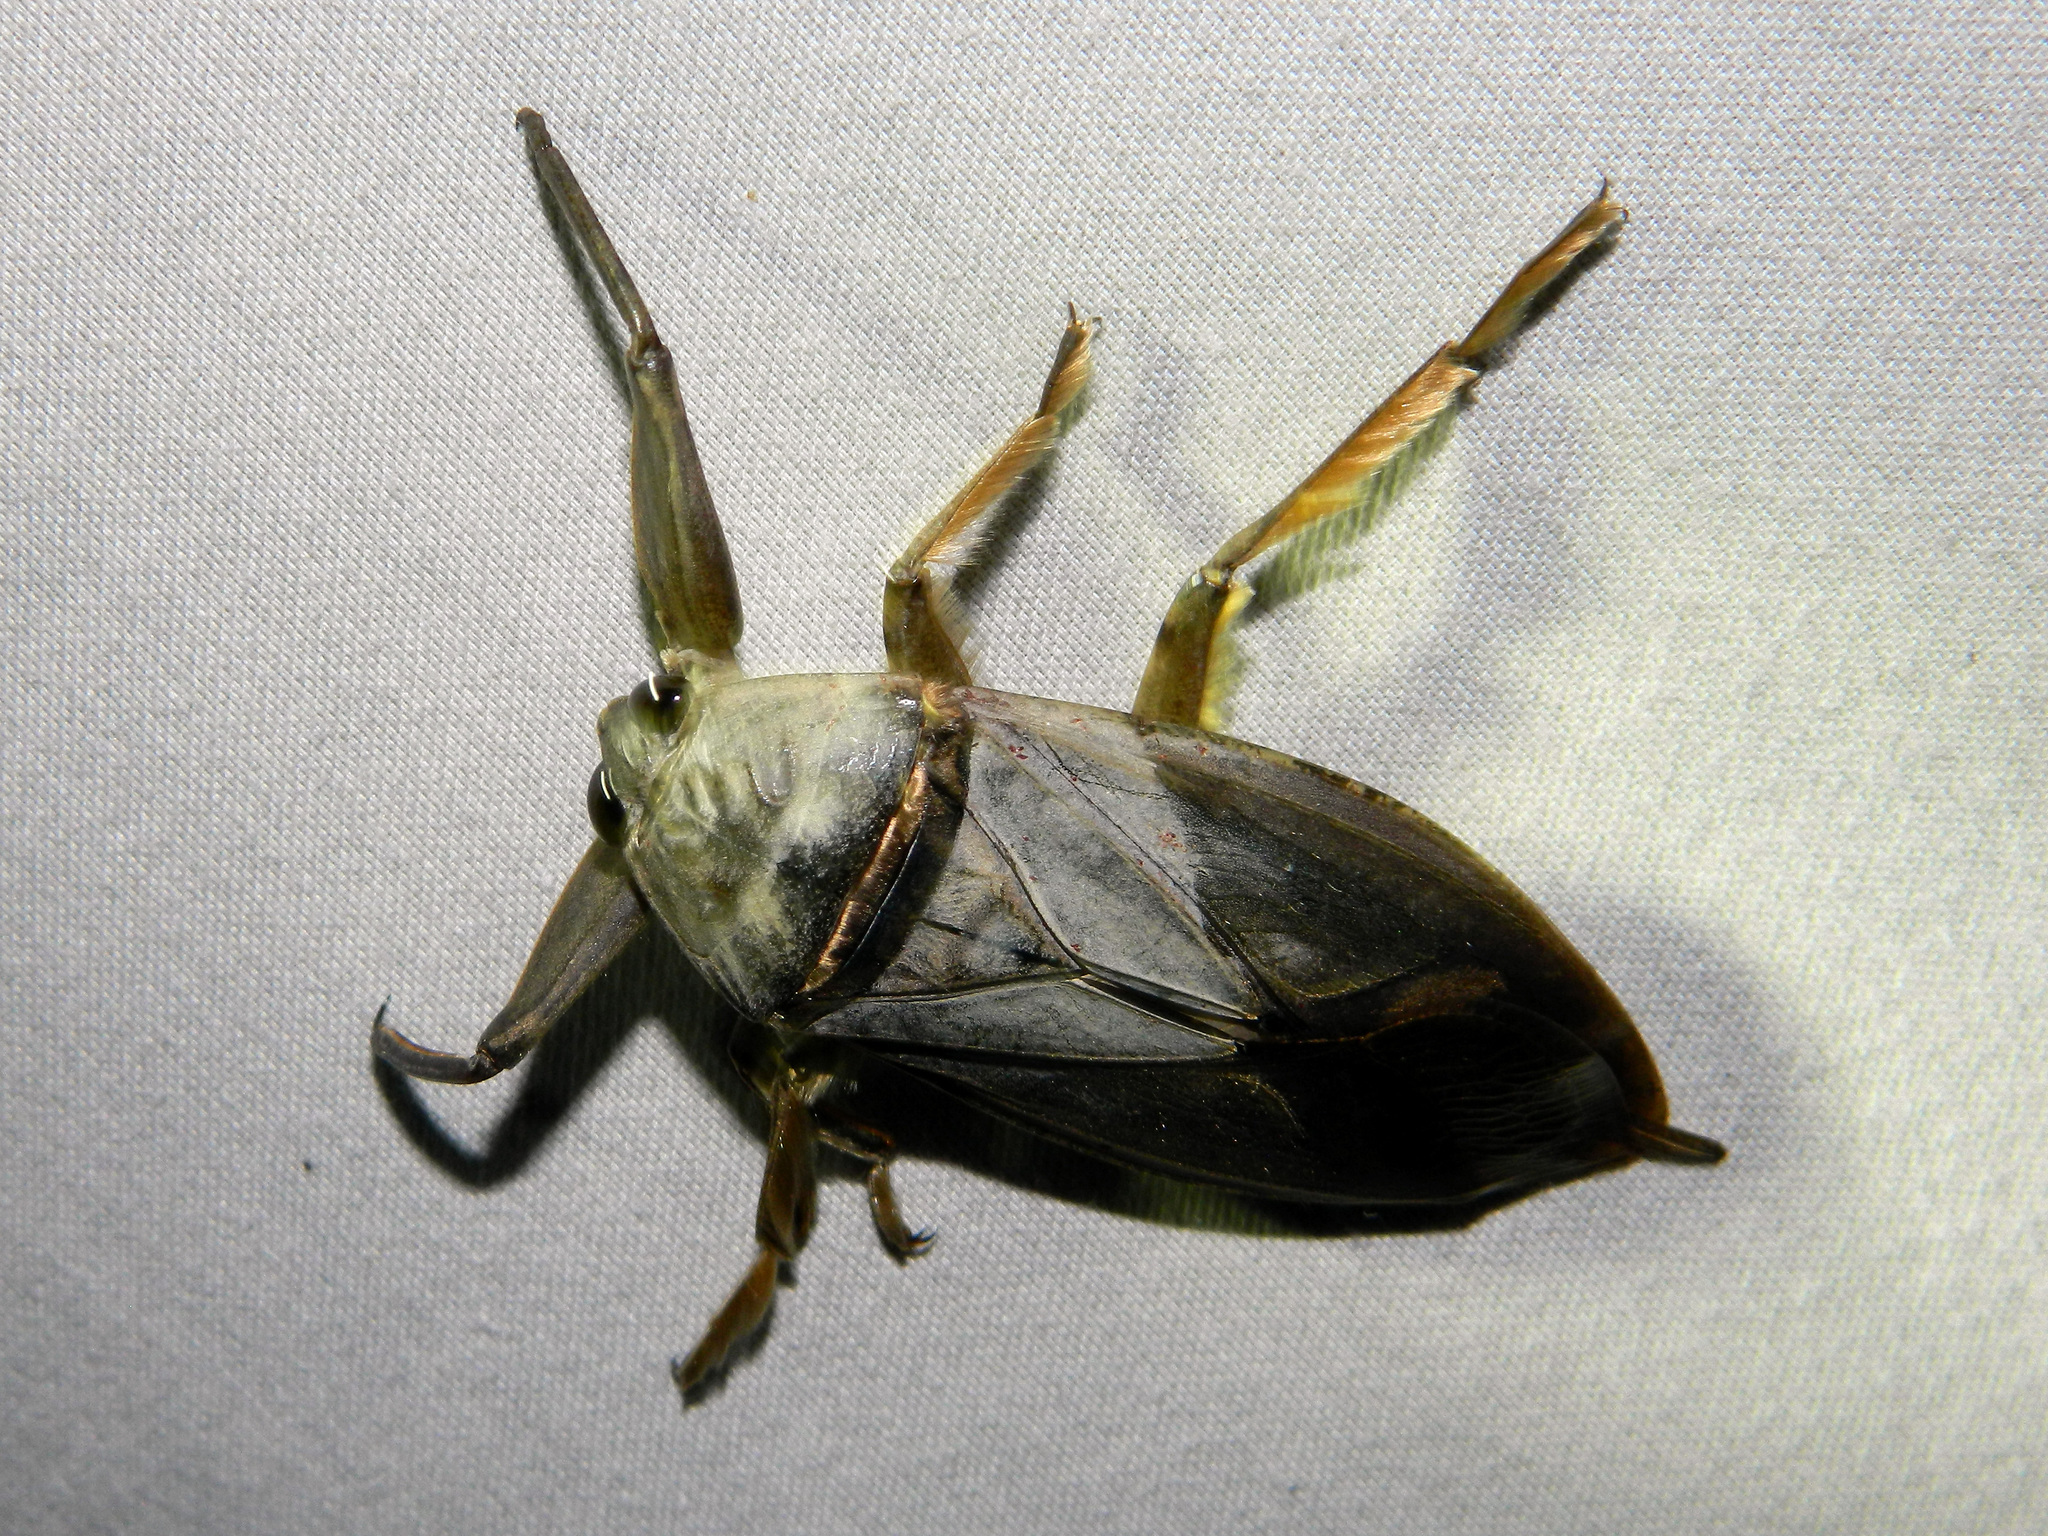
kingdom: Animalia
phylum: Arthropoda
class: Insecta
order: Hemiptera
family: Belostomatidae
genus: Lethocerus
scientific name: Lethocerus americanus
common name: Giant water bug
